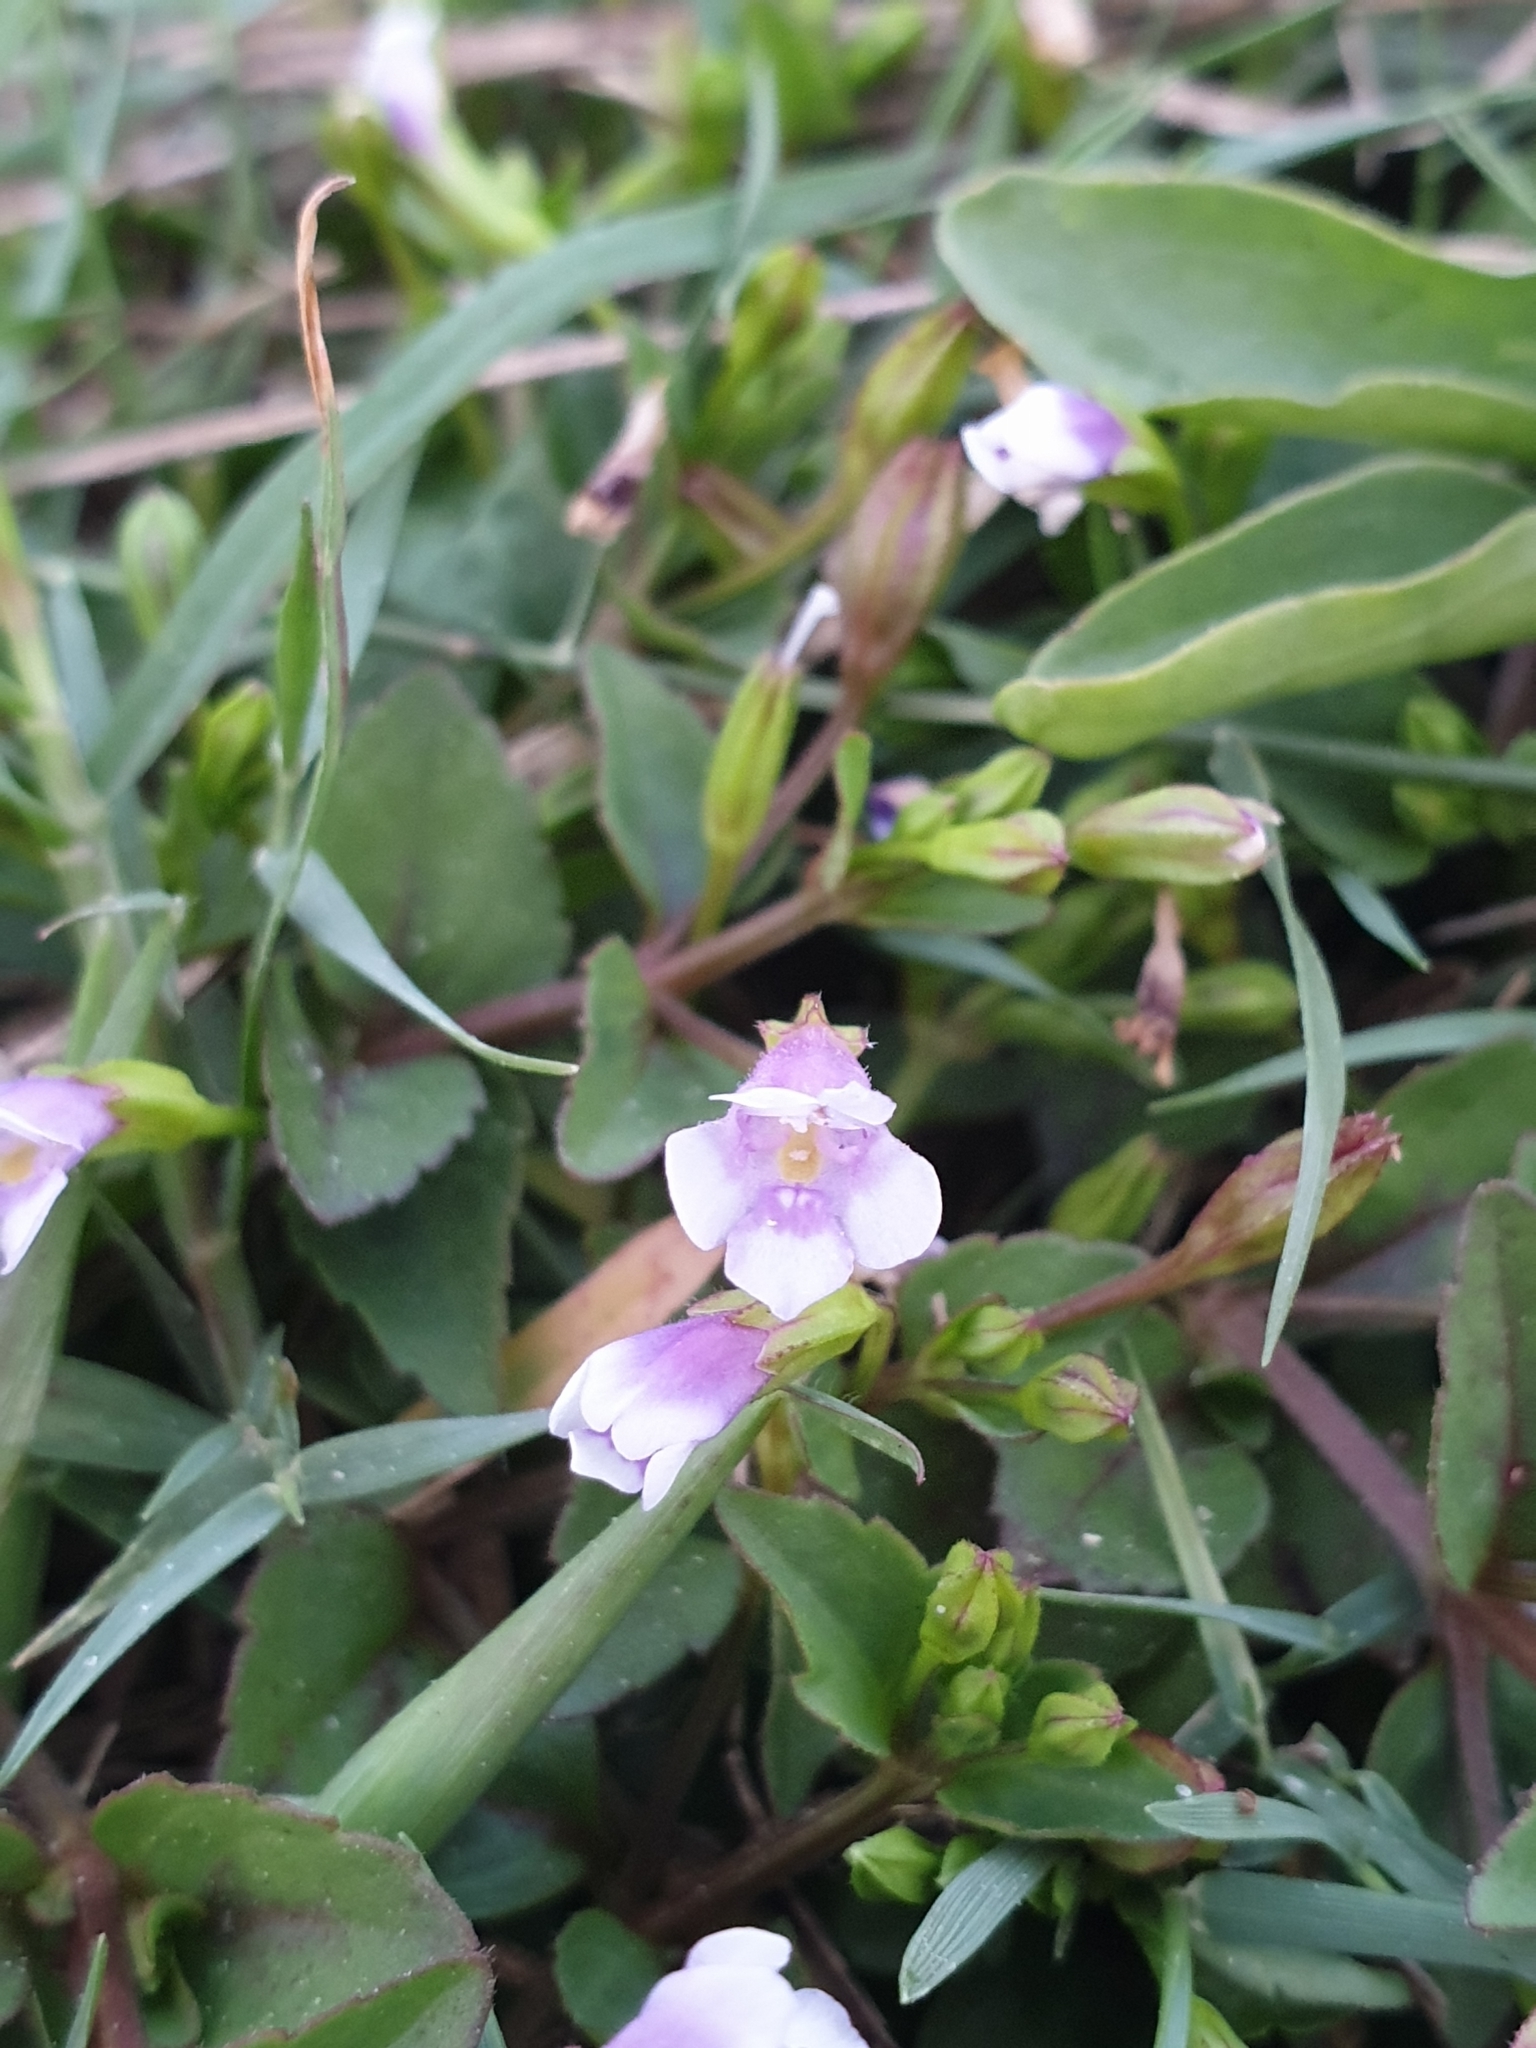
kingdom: Plantae
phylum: Tracheophyta
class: Magnoliopsida
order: Lamiales
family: Linderniaceae
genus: Torenia
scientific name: Torenia crustacea
